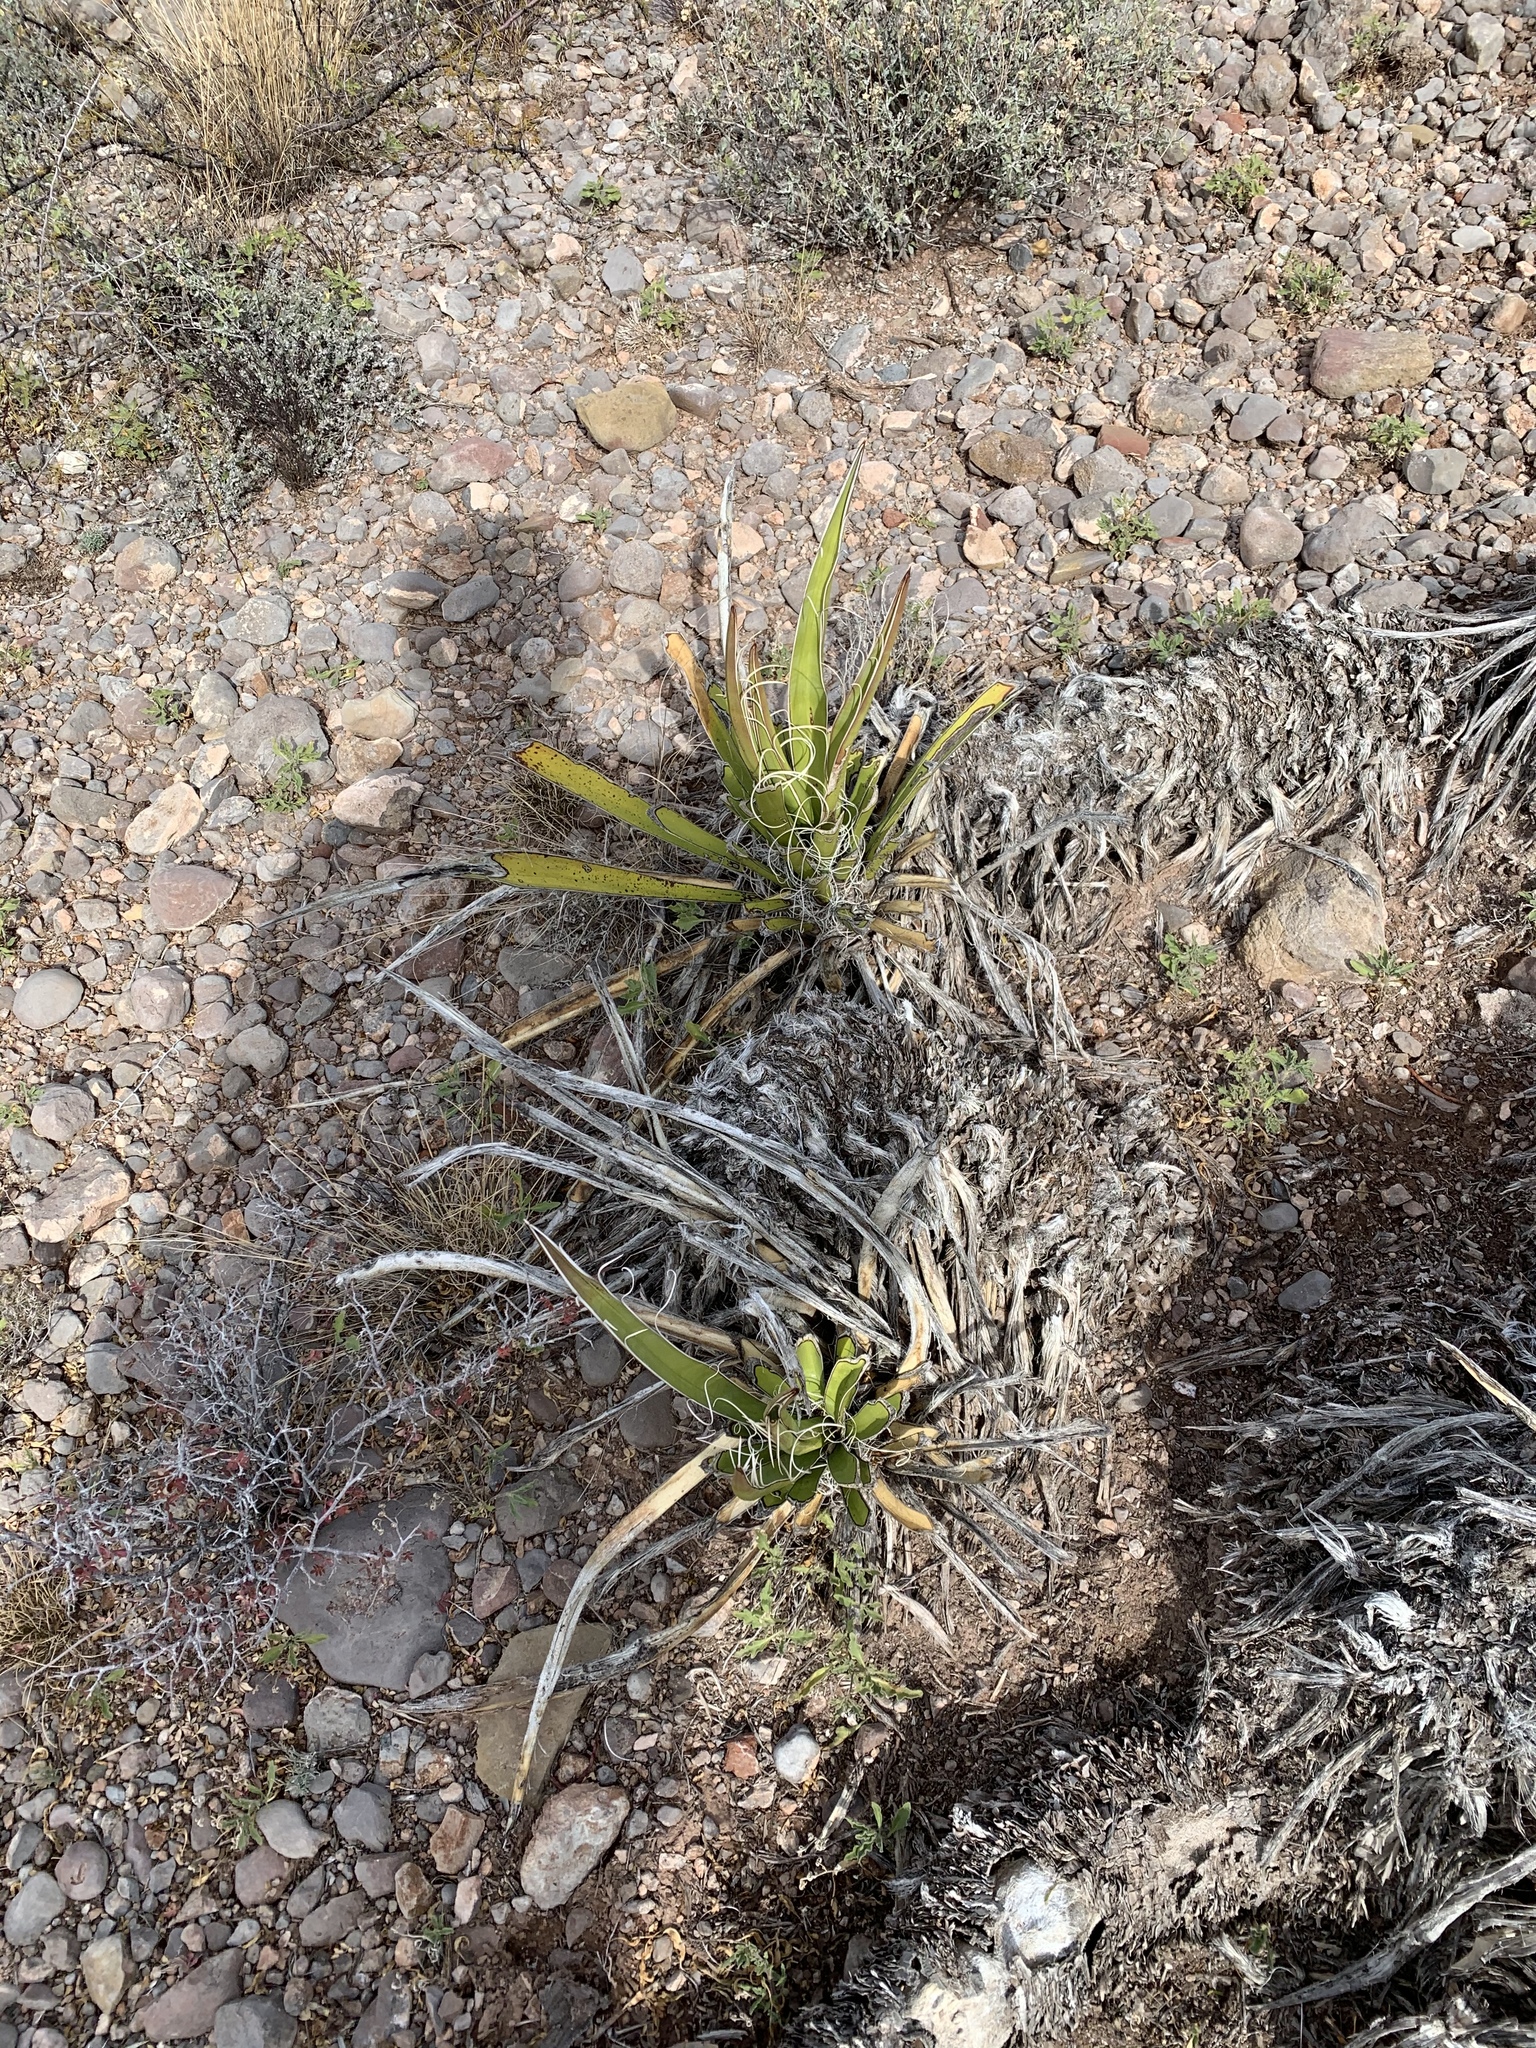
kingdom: Plantae
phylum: Tracheophyta
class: Liliopsida
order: Asparagales
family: Asparagaceae
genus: Yucca
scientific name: Yucca baccata
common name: Banana yucca
